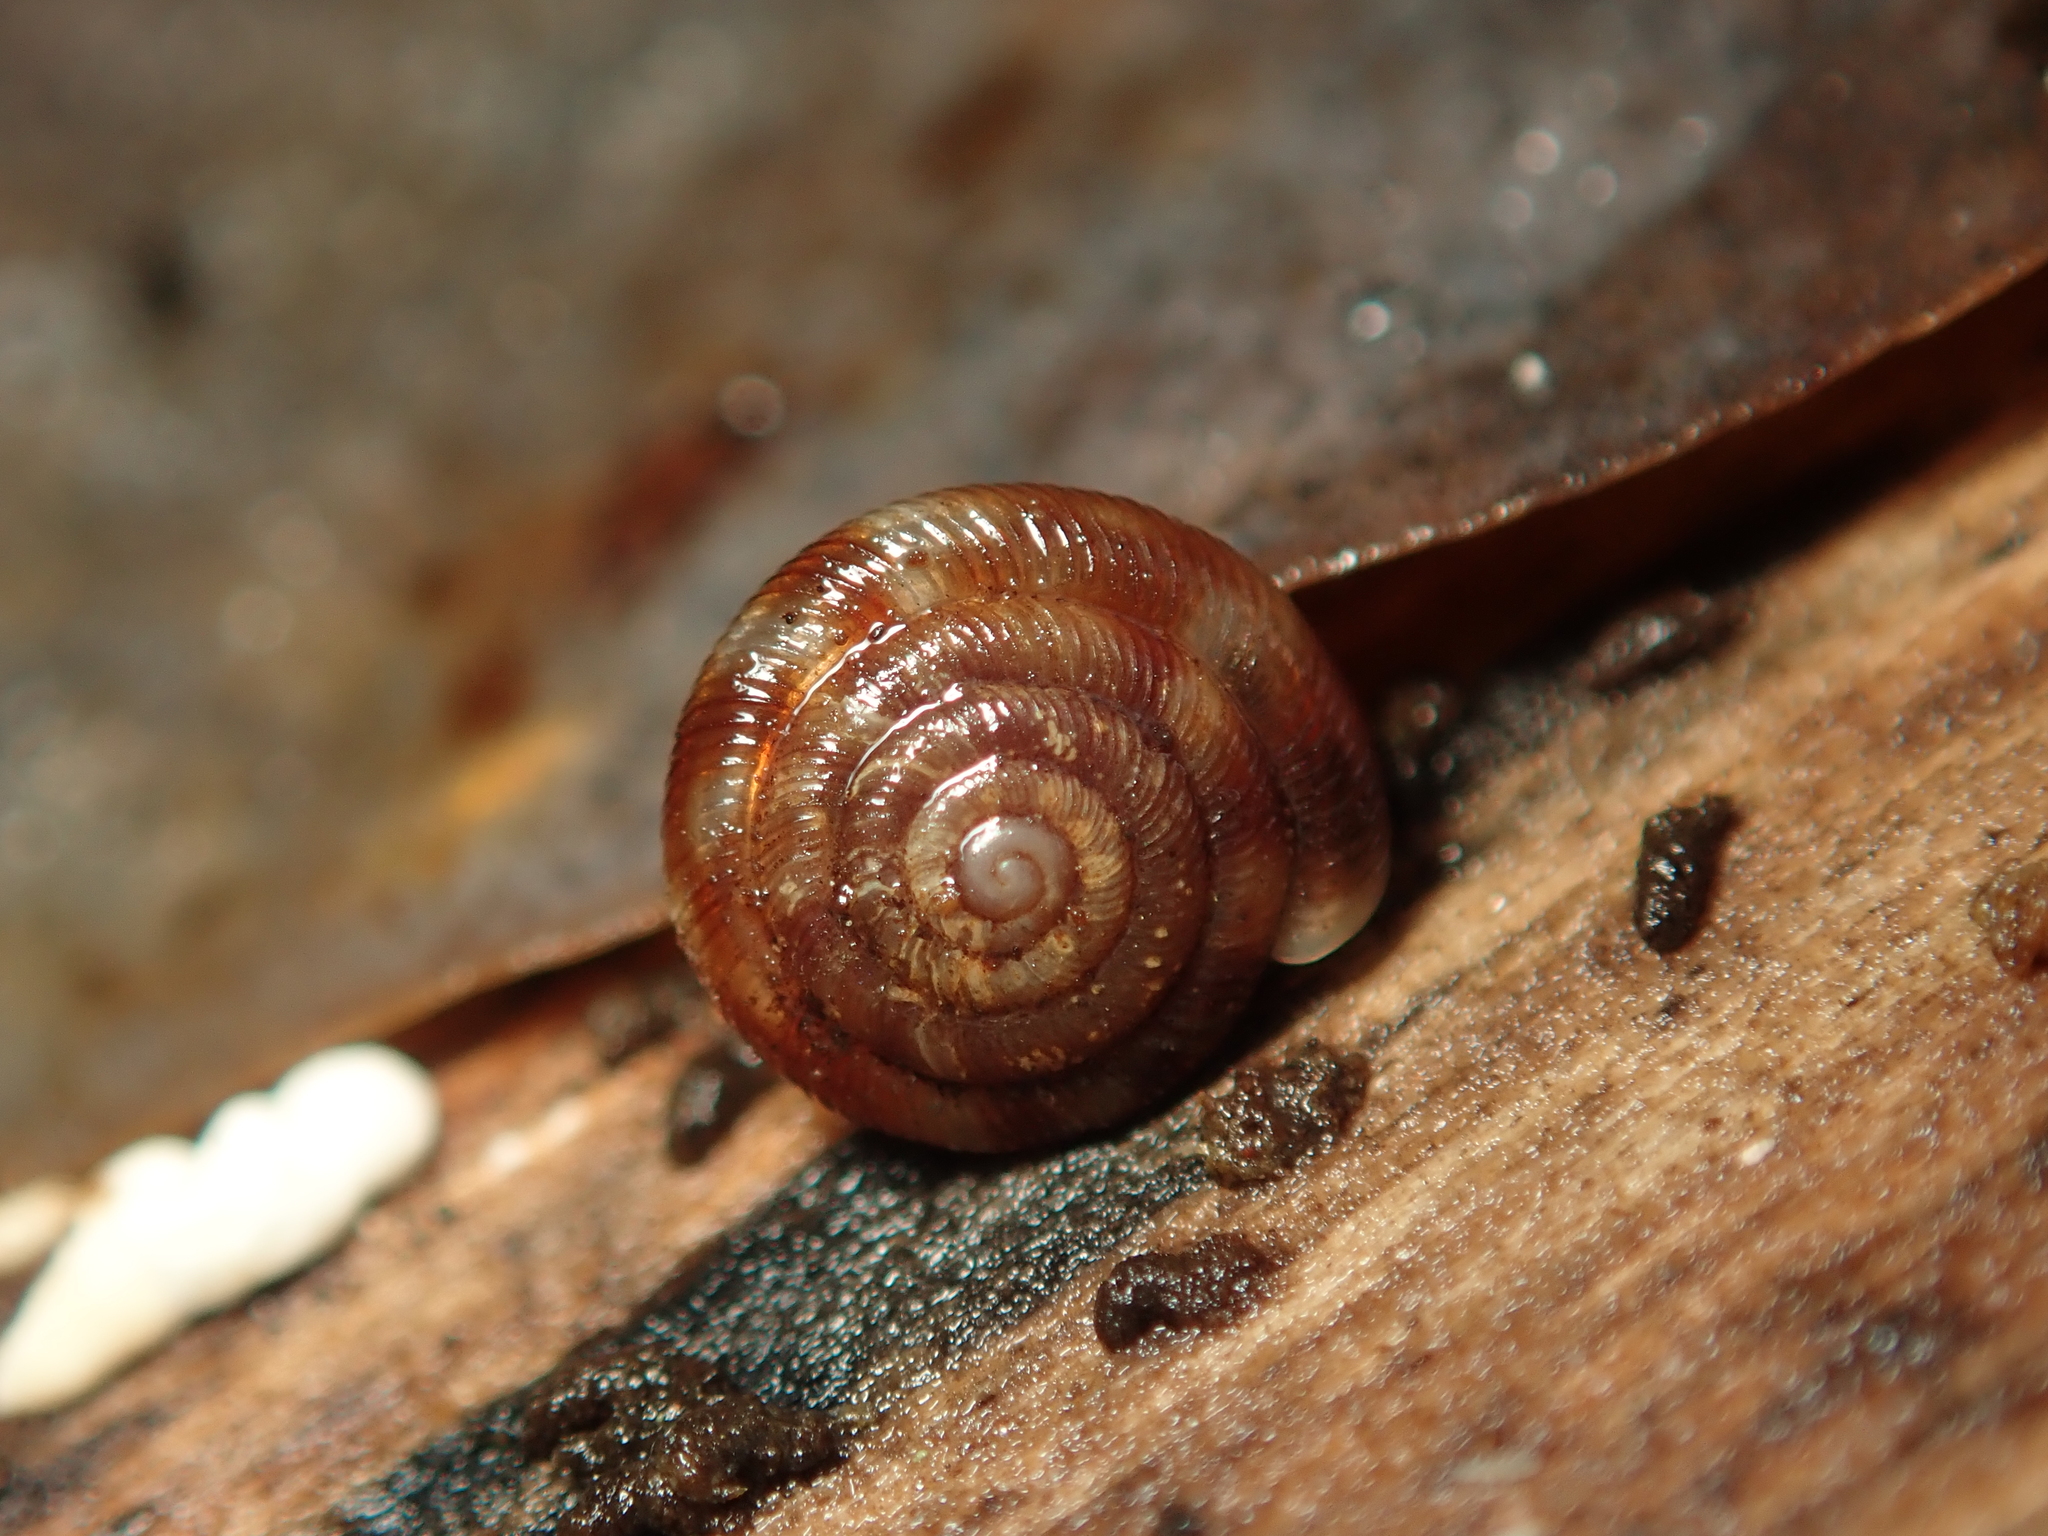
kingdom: Animalia
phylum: Mollusca
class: Gastropoda
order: Stylommatophora
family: Discidae
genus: Discus
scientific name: Discus rotundatus
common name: Rounded snail
